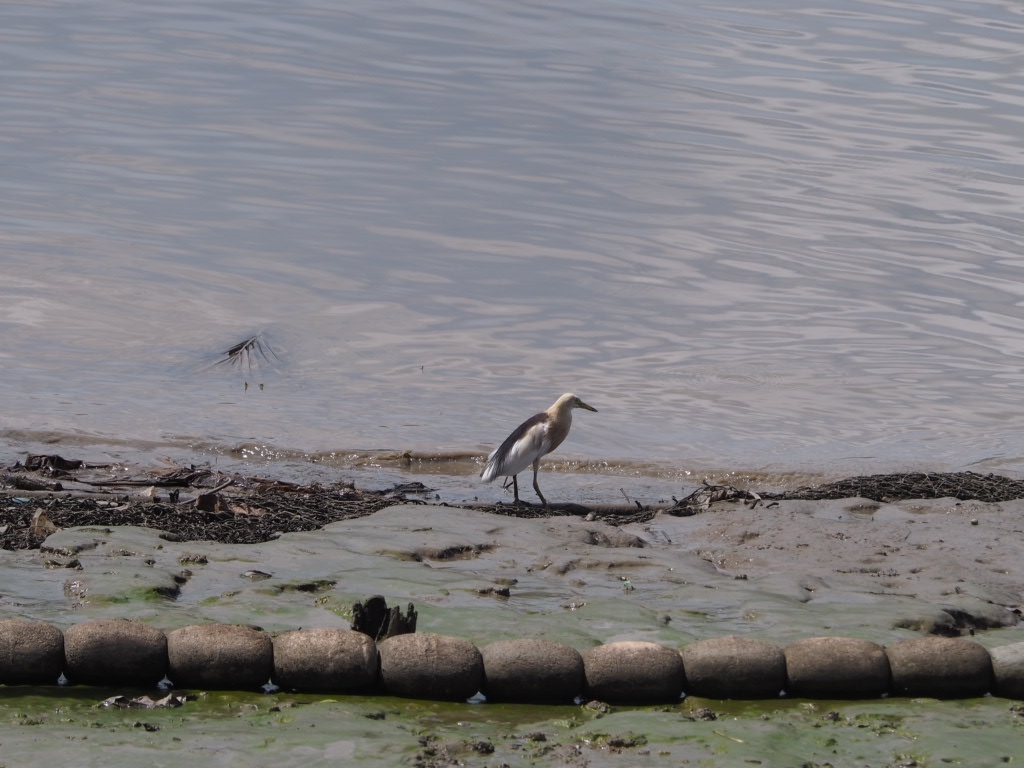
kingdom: Animalia
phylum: Chordata
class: Aves
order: Pelecaniformes
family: Ardeidae
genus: Ardeola
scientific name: Ardeola speciosa
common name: Javan pond heron
